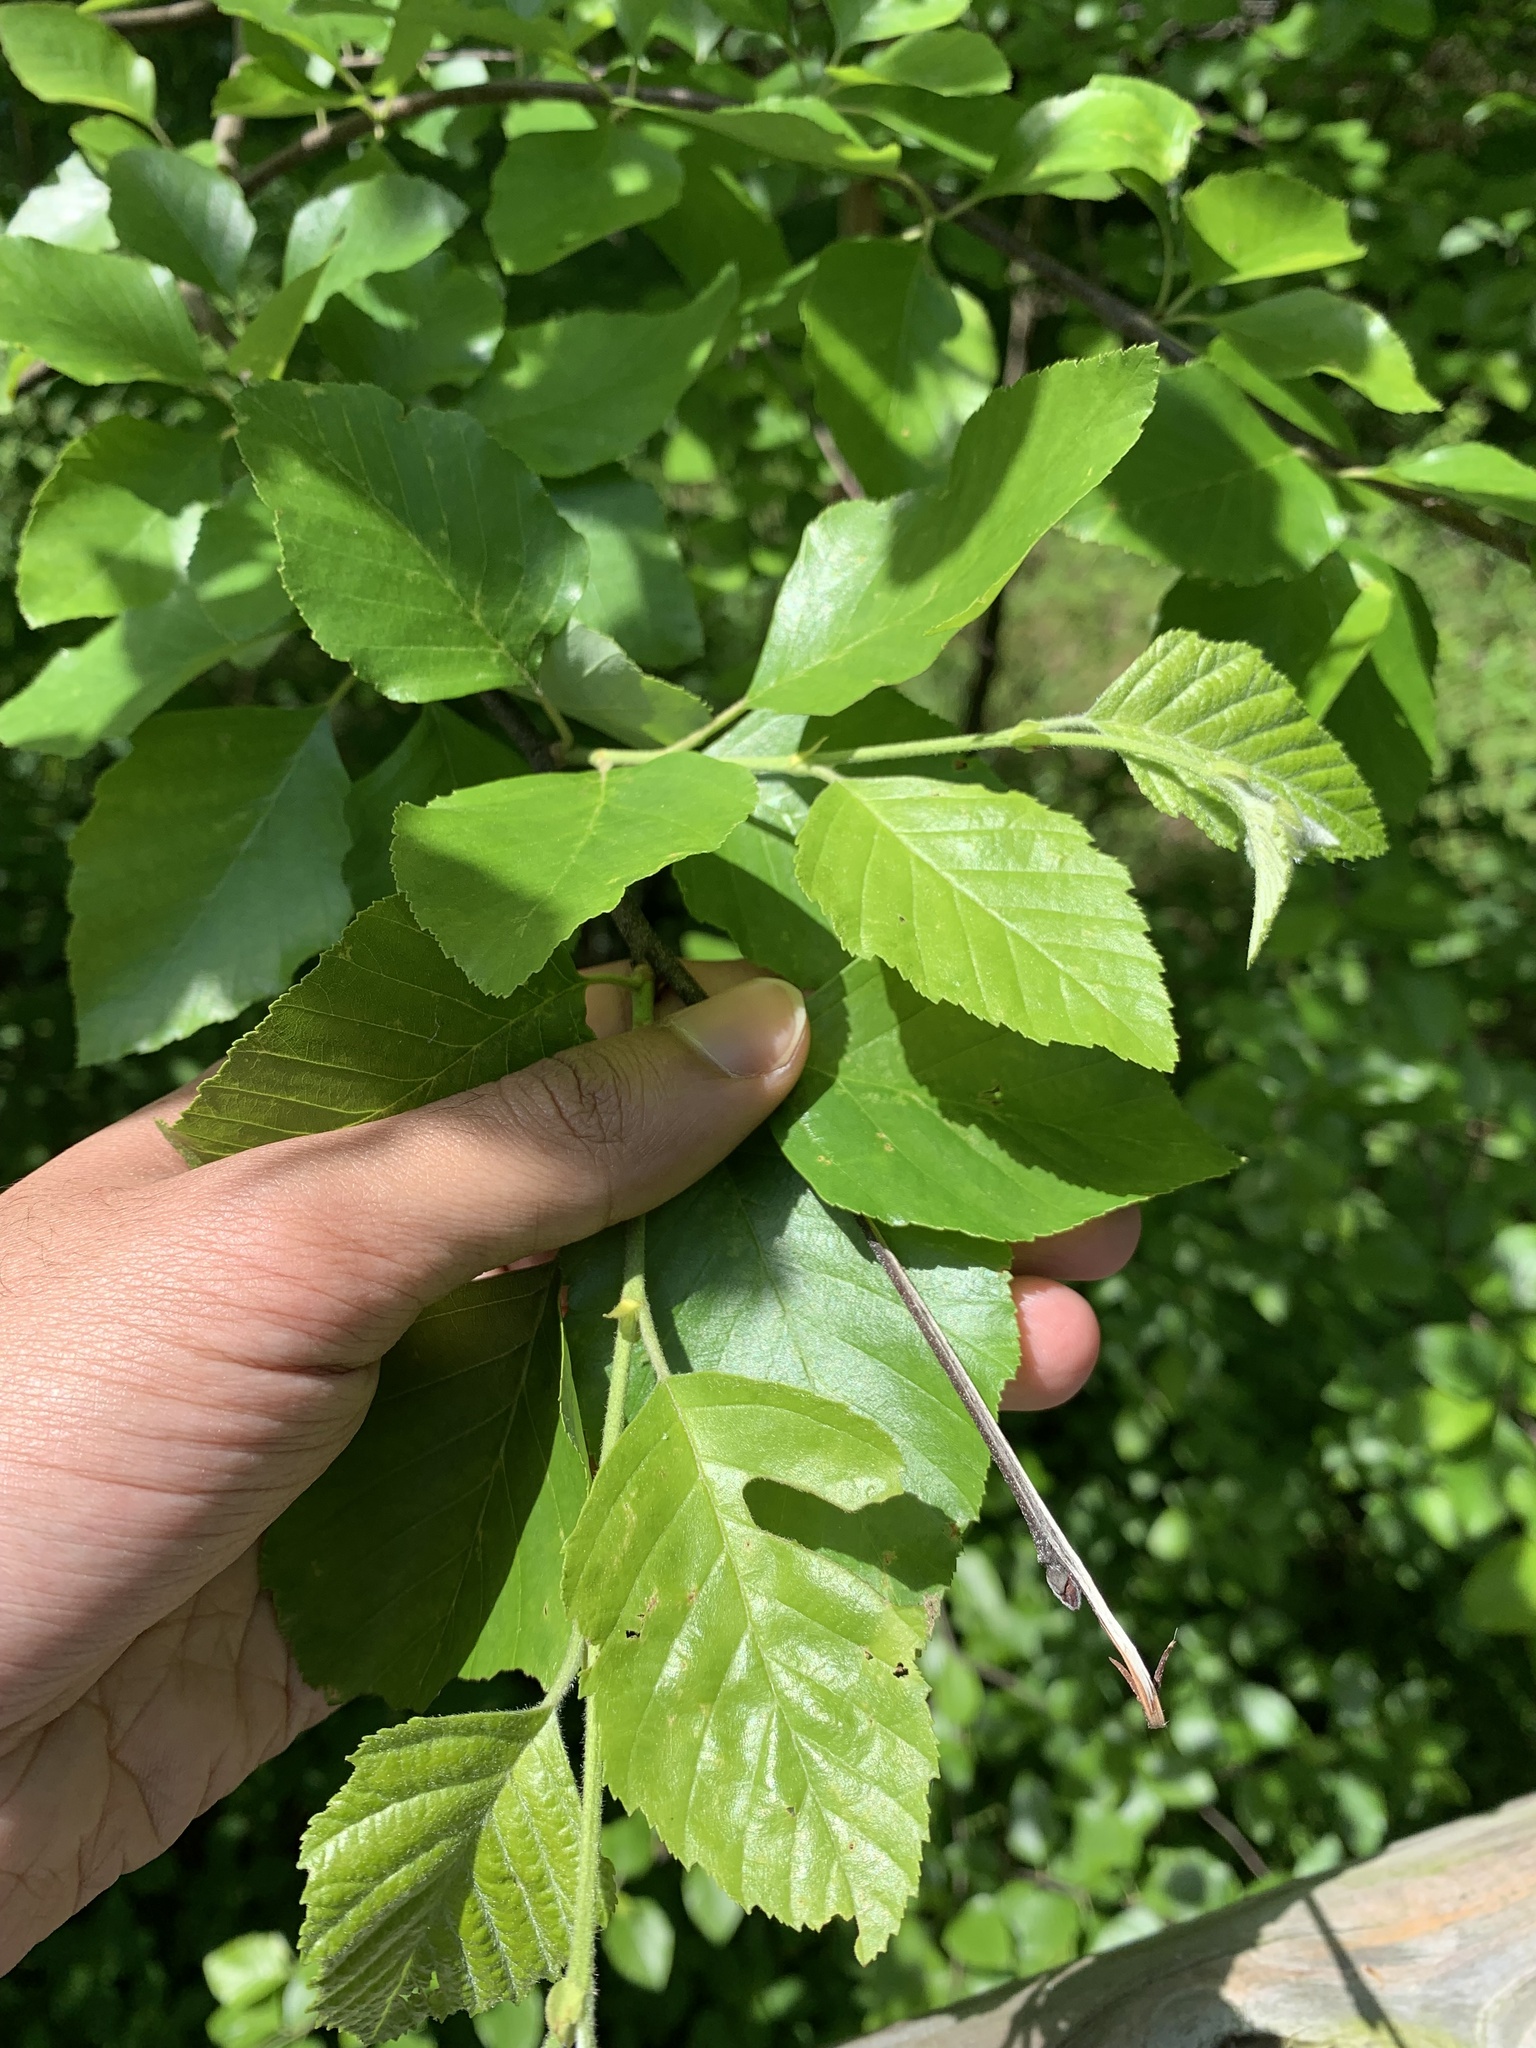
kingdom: Plantae
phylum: Tracheophyta
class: Magnoliopsida
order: Fagales
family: Betulaceae
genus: Betula
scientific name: Betula nigra
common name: Black birch
